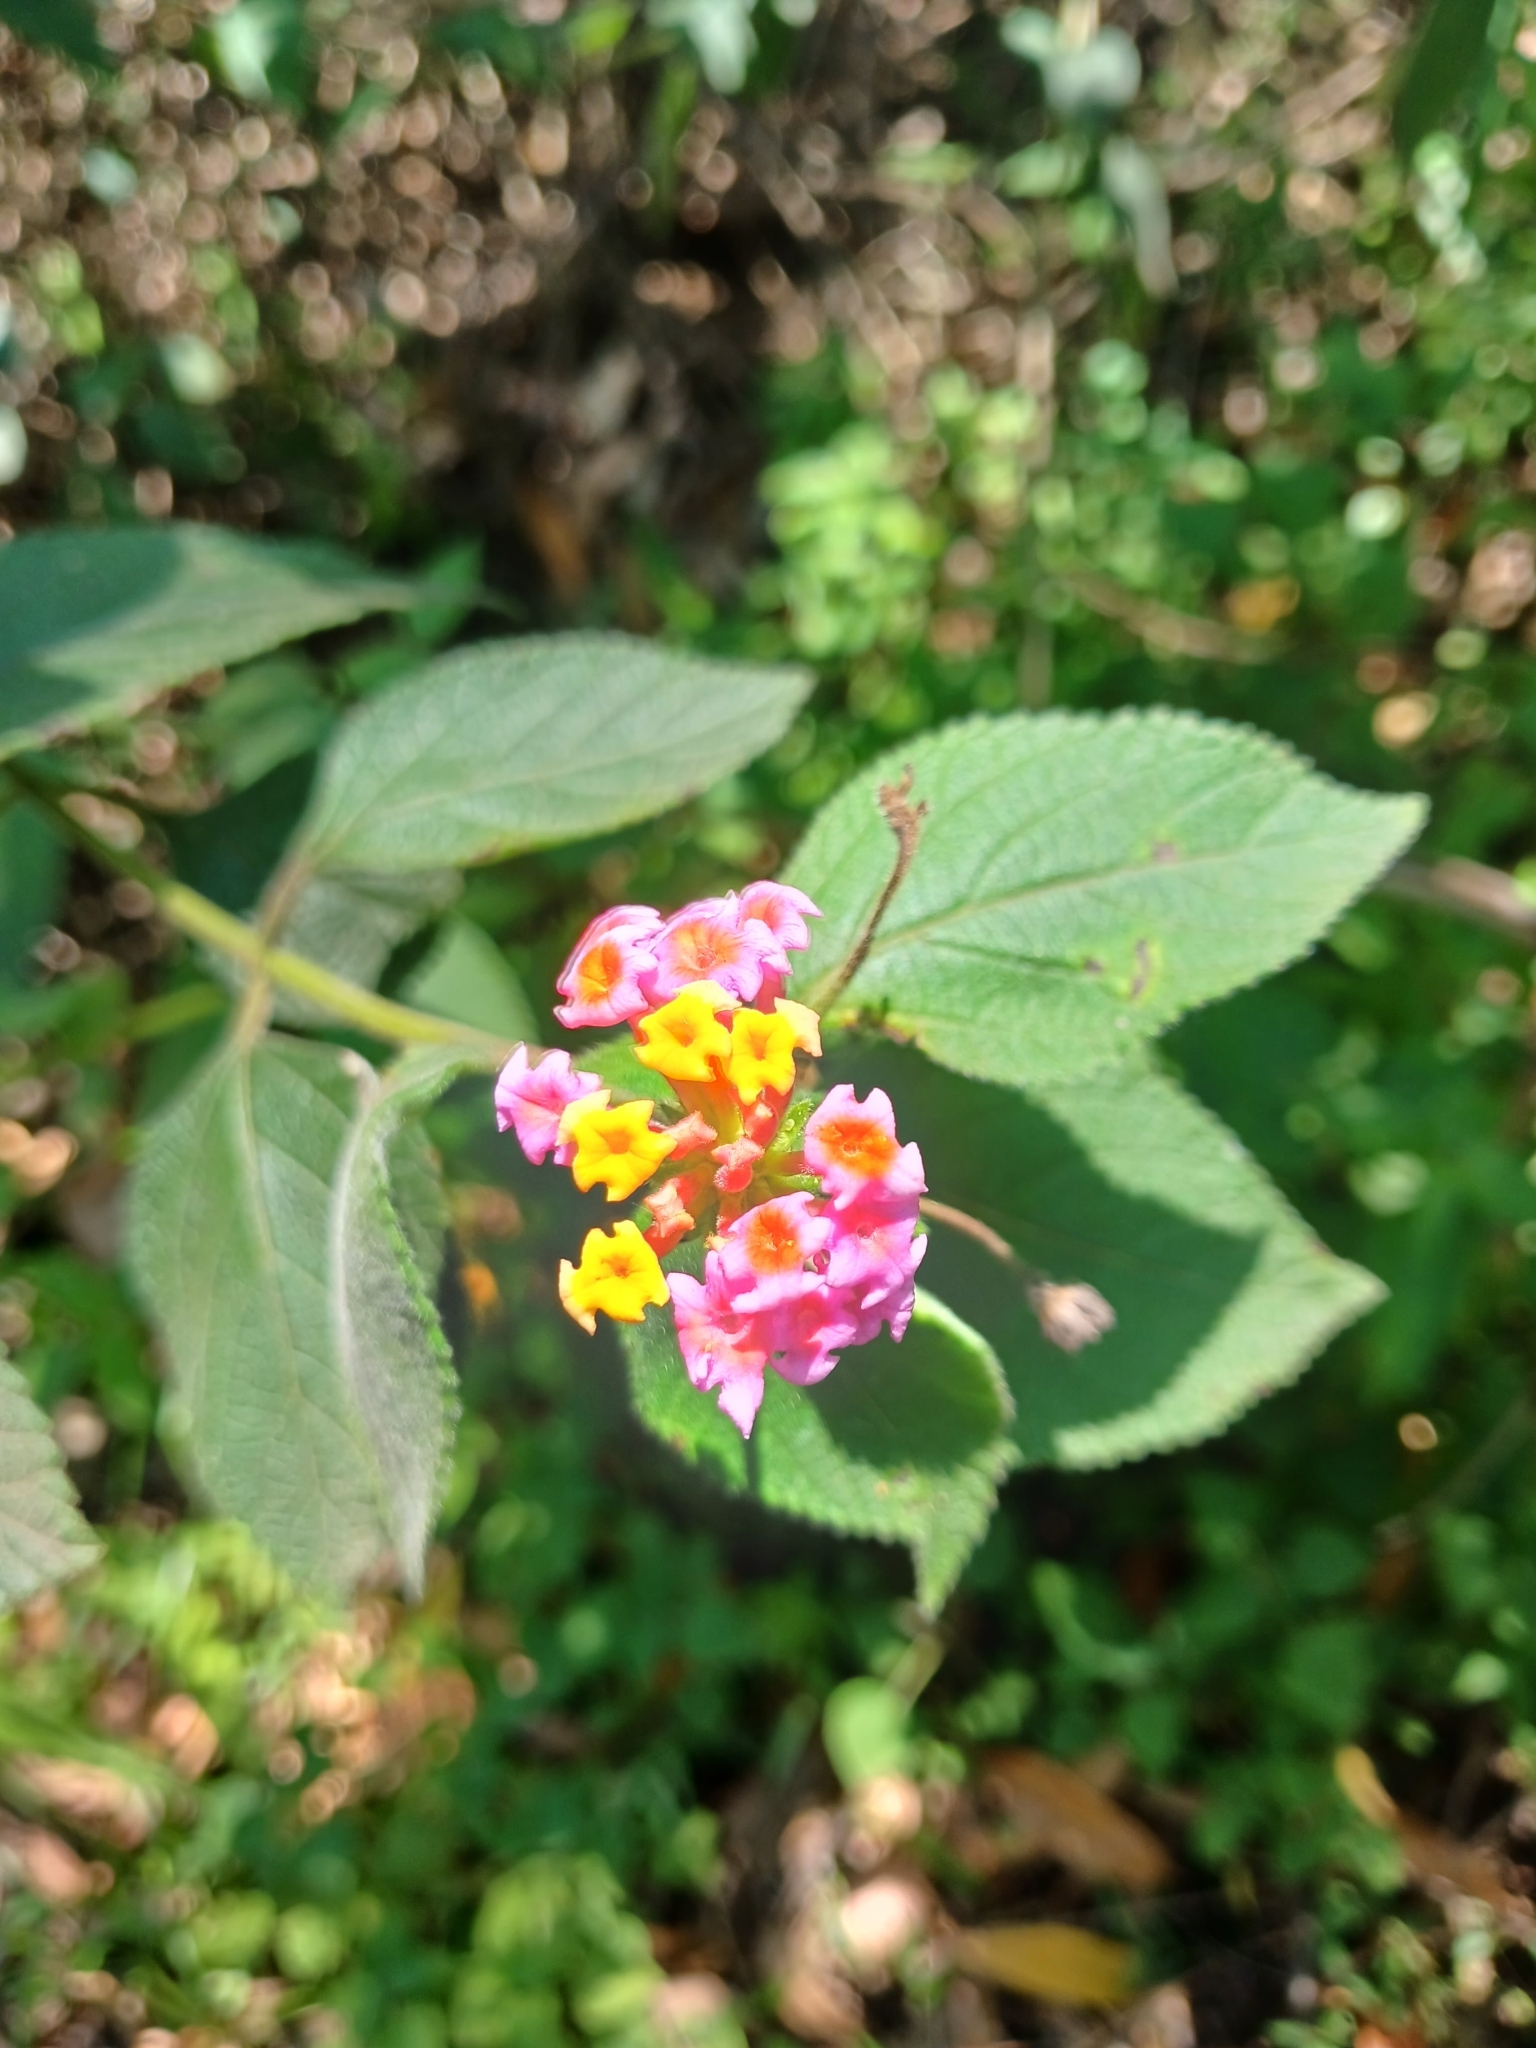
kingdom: Plantae
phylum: Tracheophyta
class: Magnoliopsida
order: Lamiales
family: Verbenaceae
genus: Lantana
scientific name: Lantana camara
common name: Lantana
